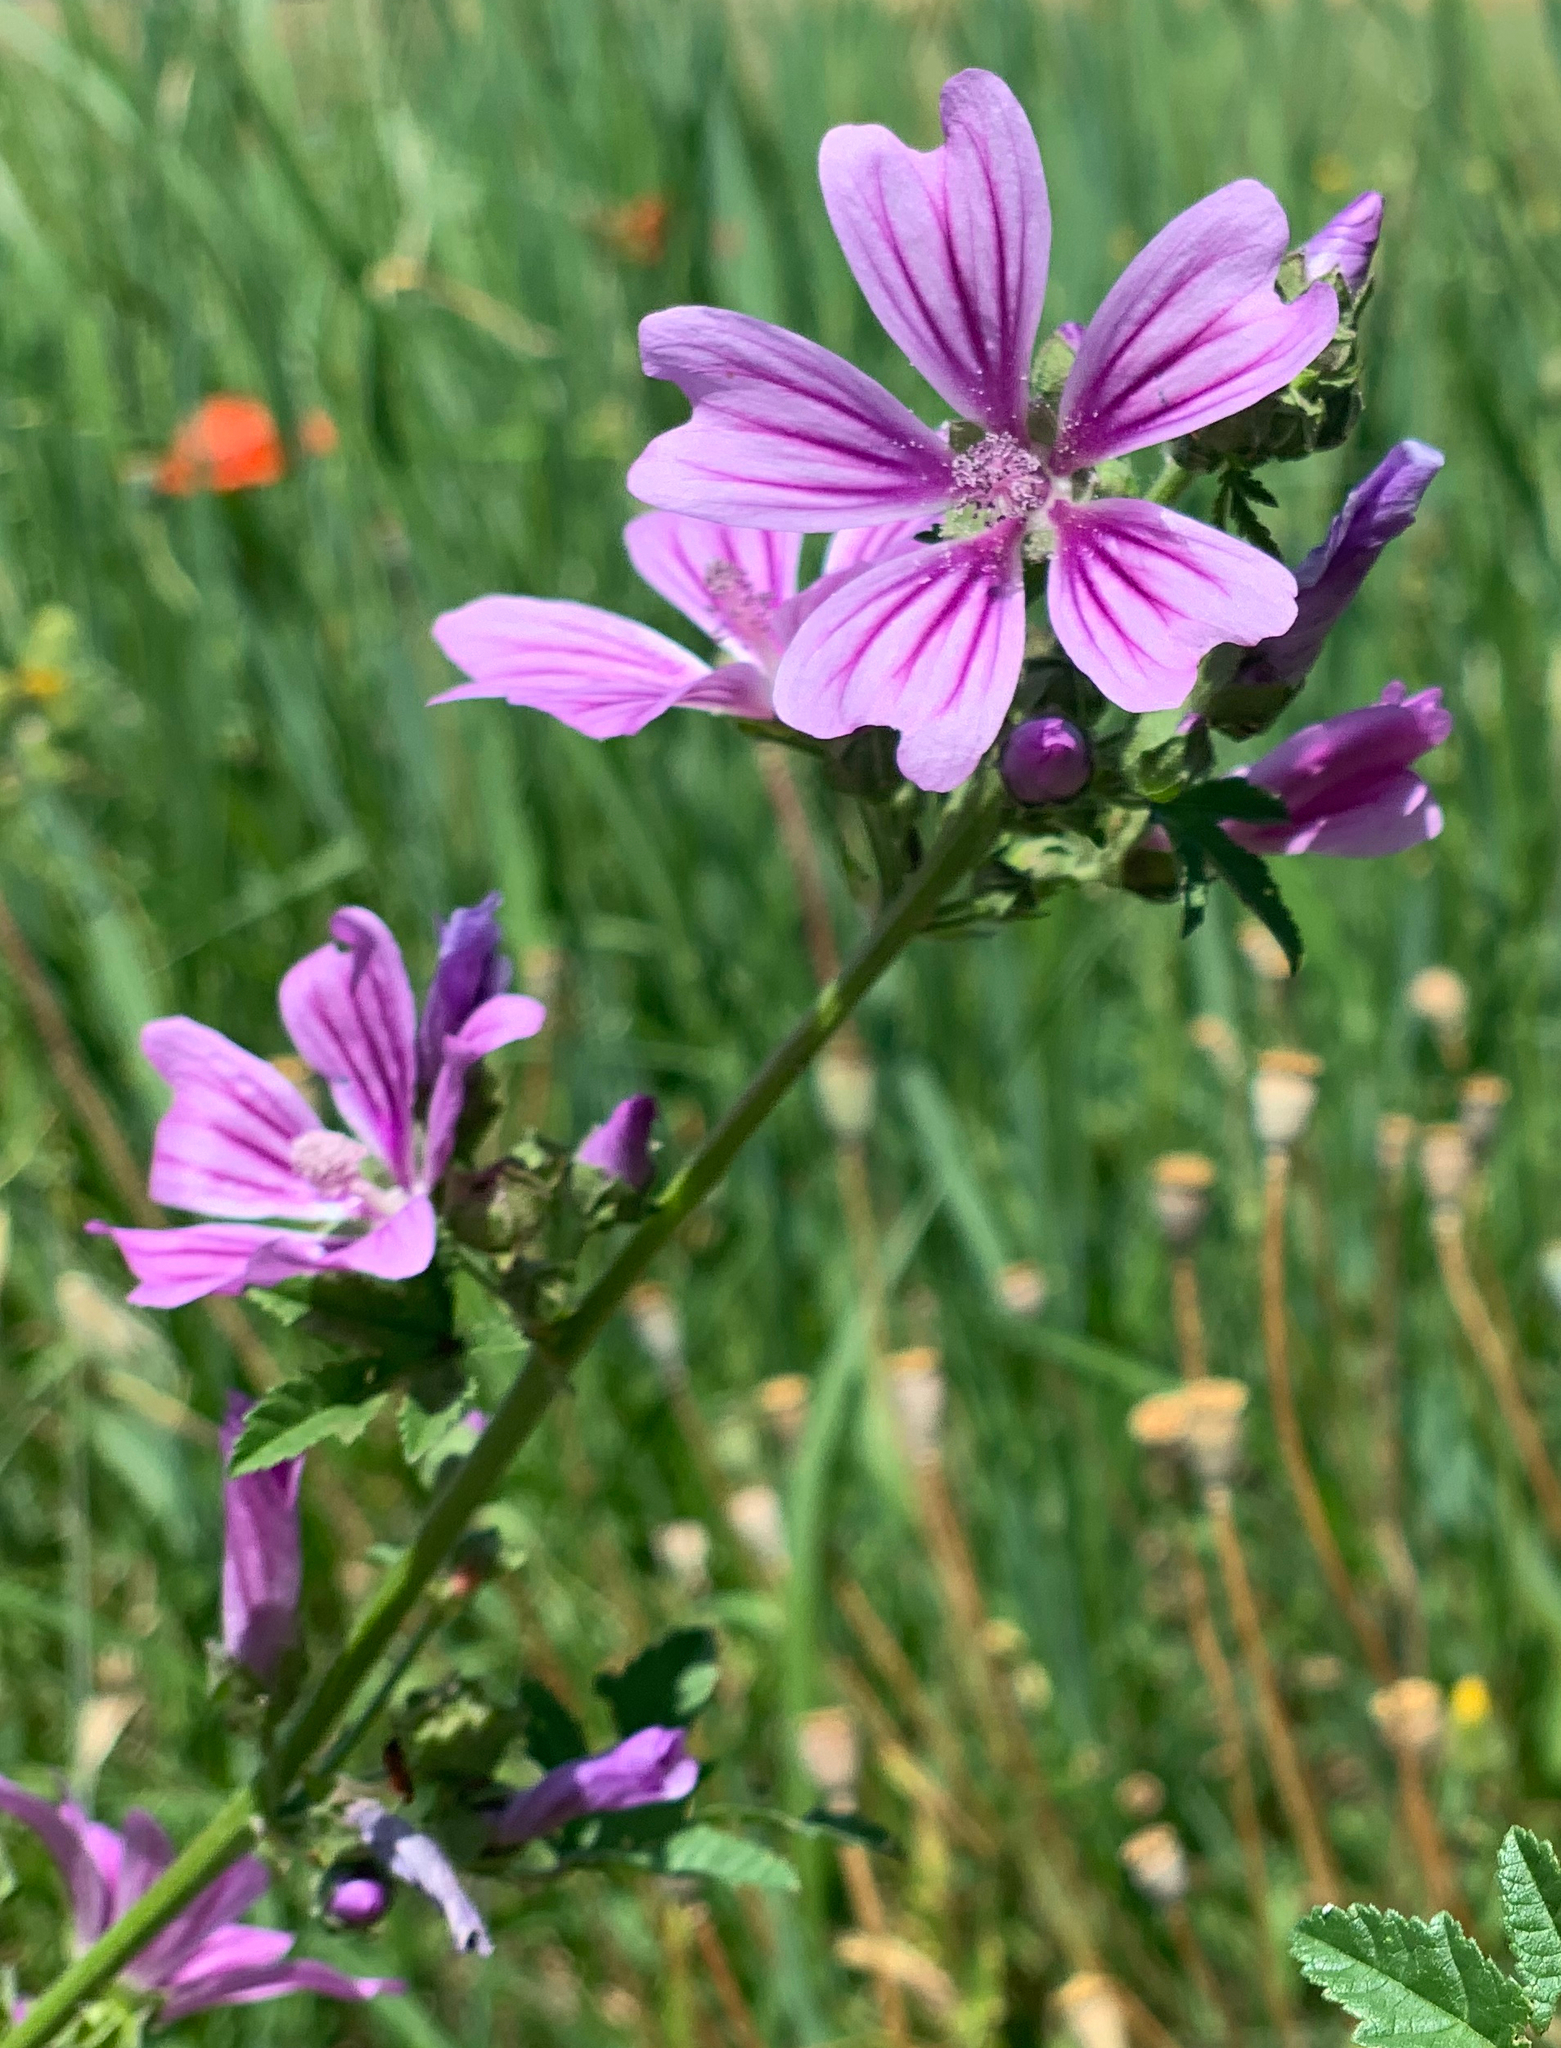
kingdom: Plantae
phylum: Tracheophyta
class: Magnoliopsida
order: Malvales
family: Malvaceae
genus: Malva
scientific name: Malva sylvestris
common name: Common mallow
